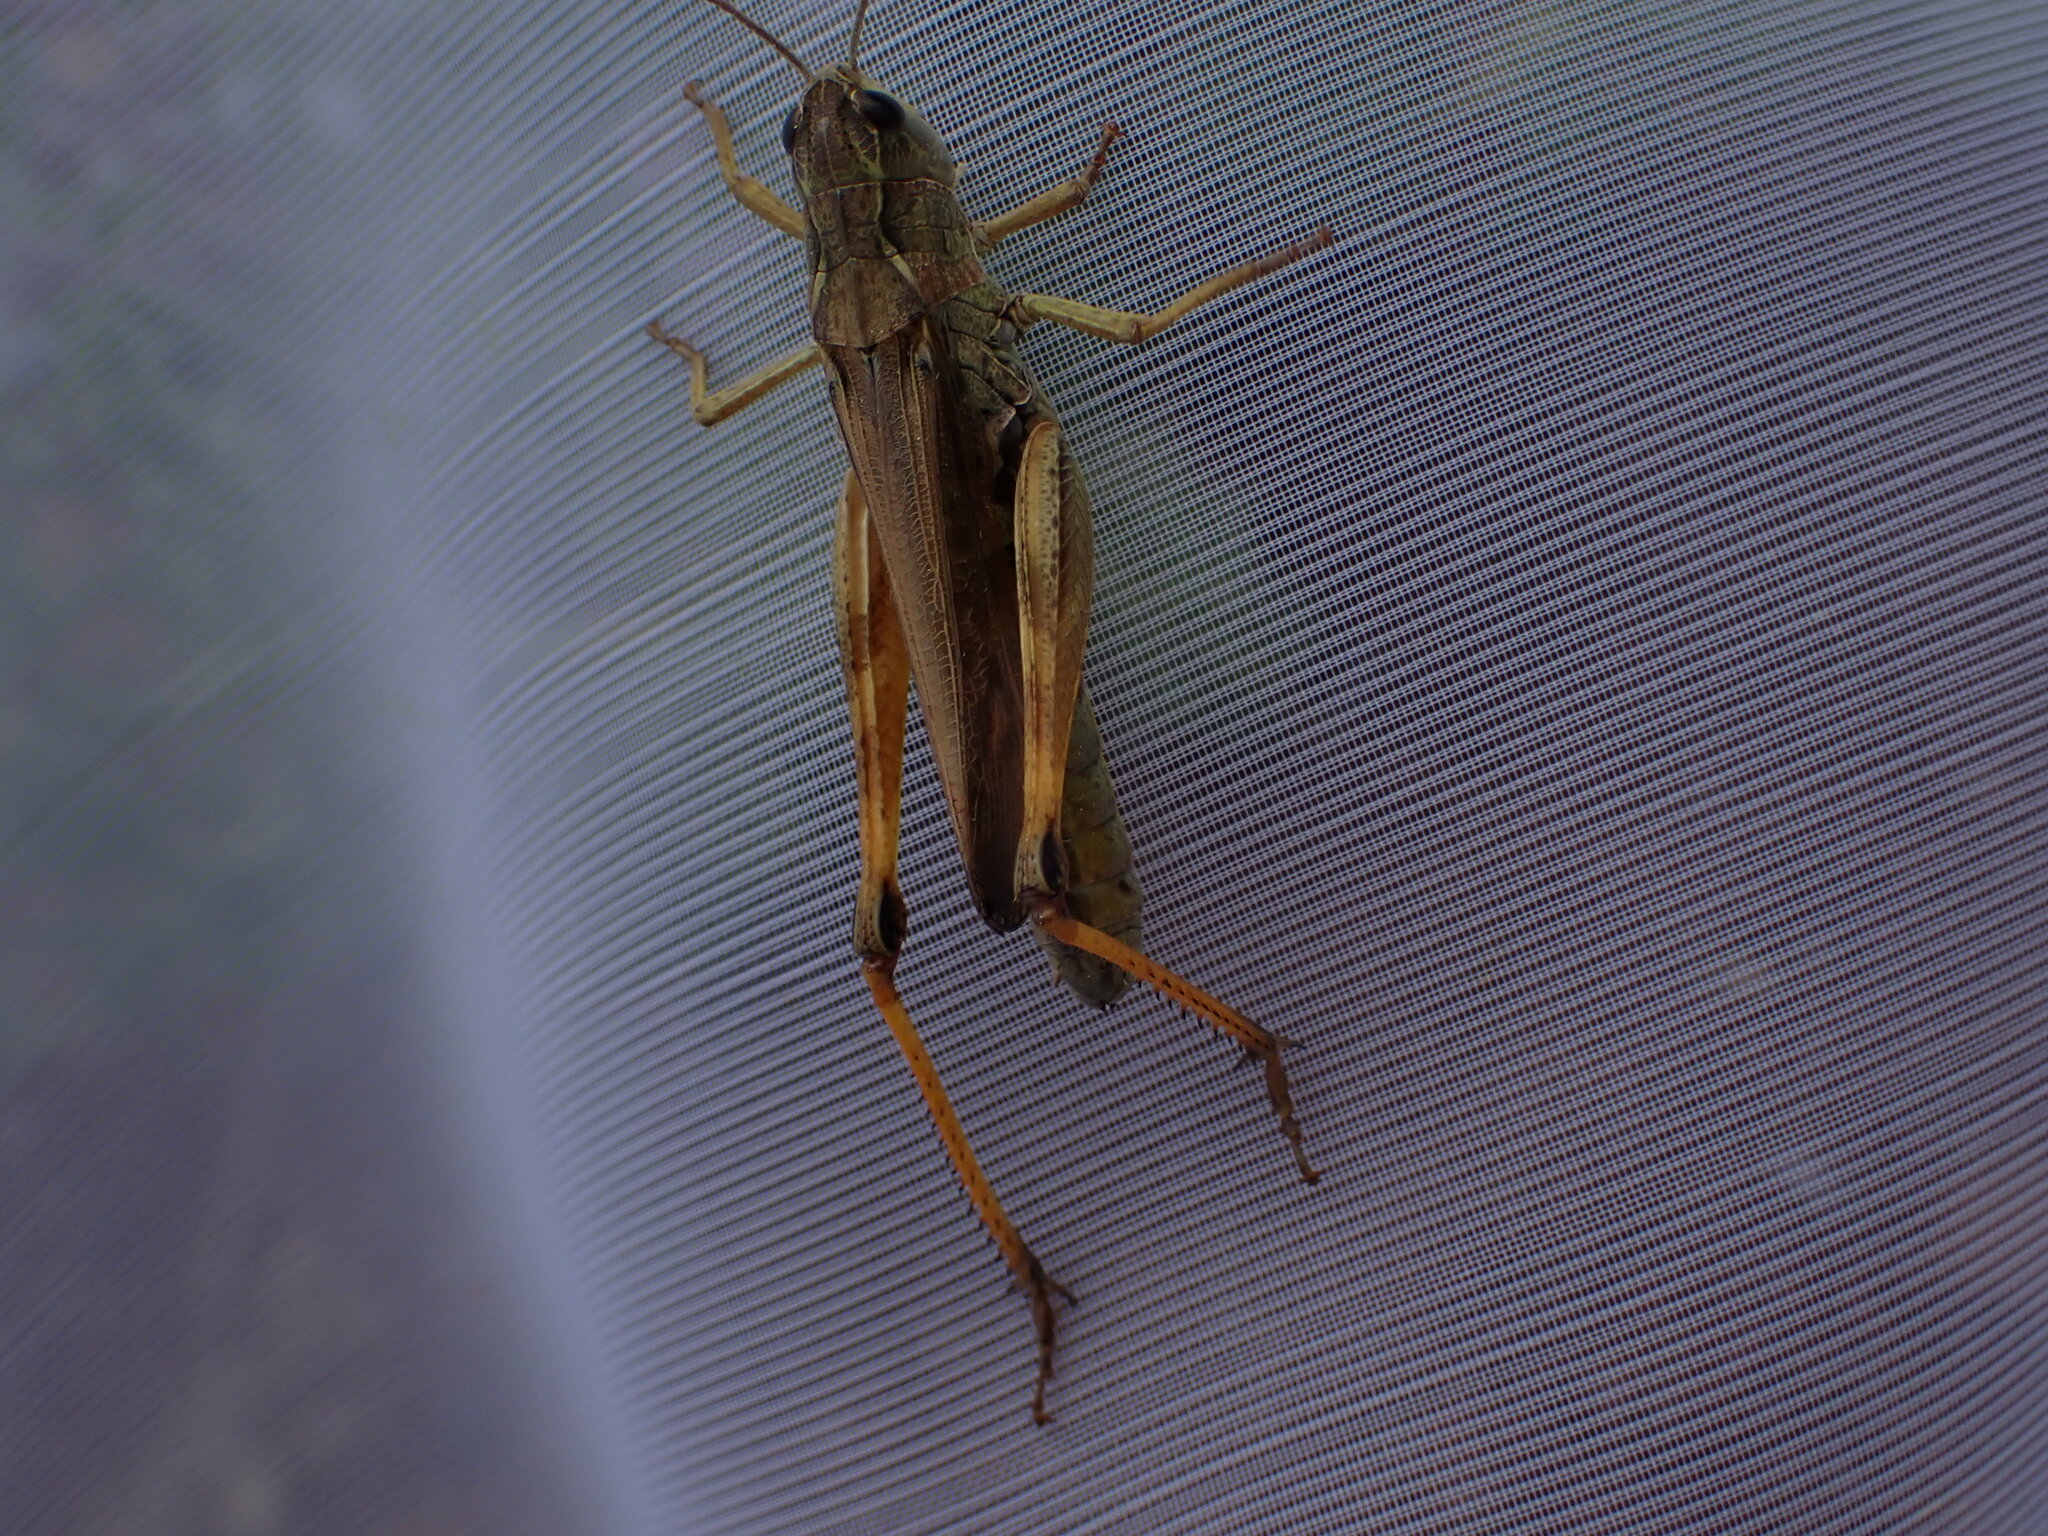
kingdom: Animalia
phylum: Arthropoda
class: Insecta
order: Orthoptera
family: Acrididae
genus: Stauroderus
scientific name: Stauroderus scalaris
